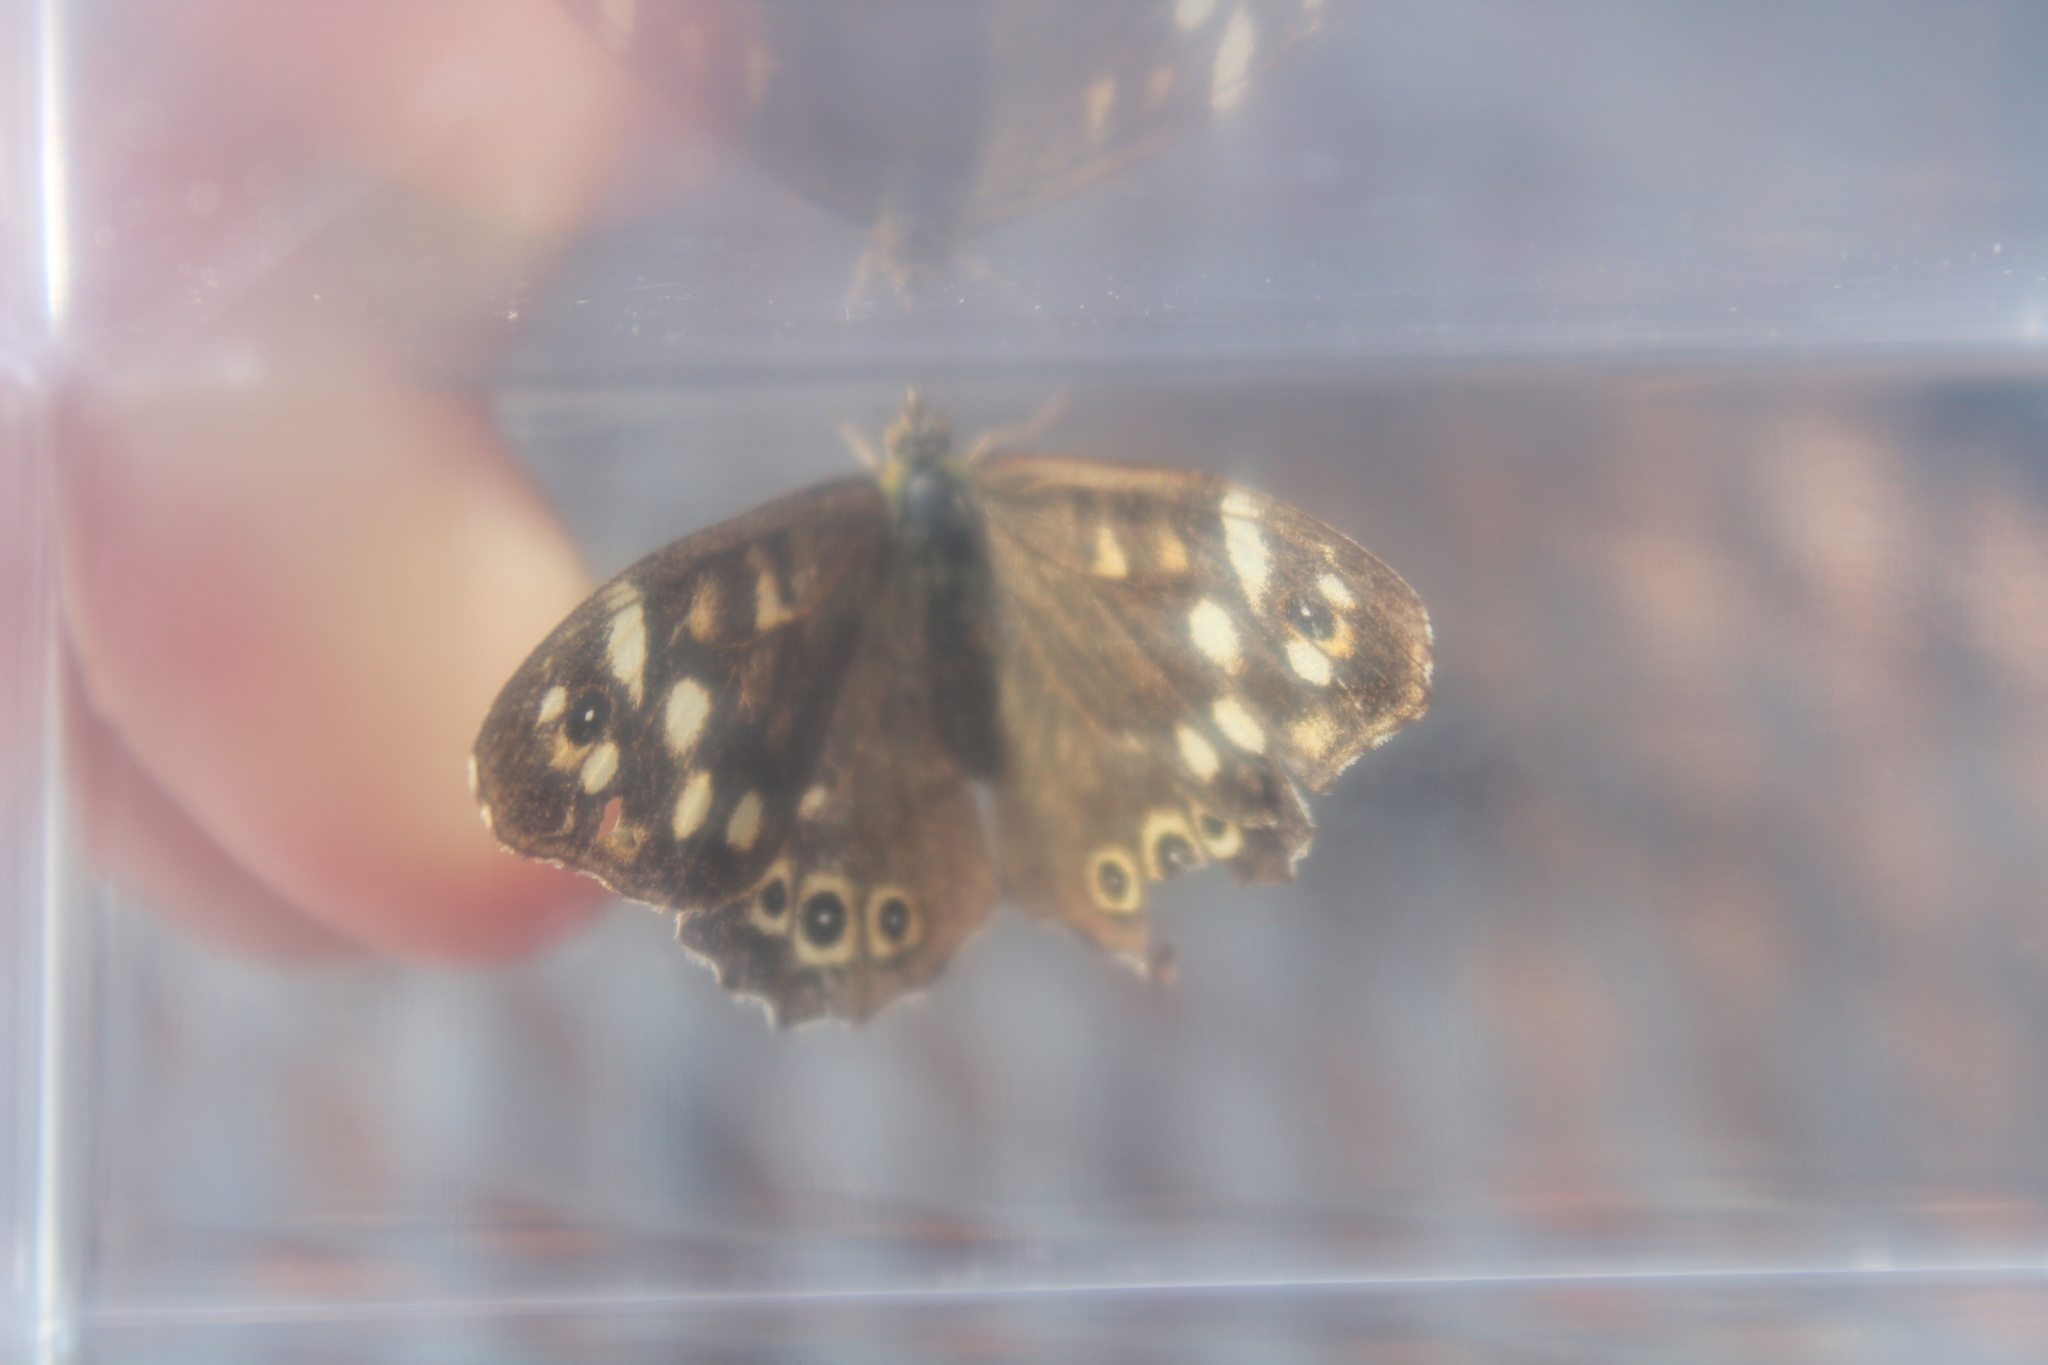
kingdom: Animalia
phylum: Arthropoda
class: Insecta
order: Lepidoptera
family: Nymphalidae
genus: Pararge
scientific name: Pararge aegeria
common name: Speckled wood
